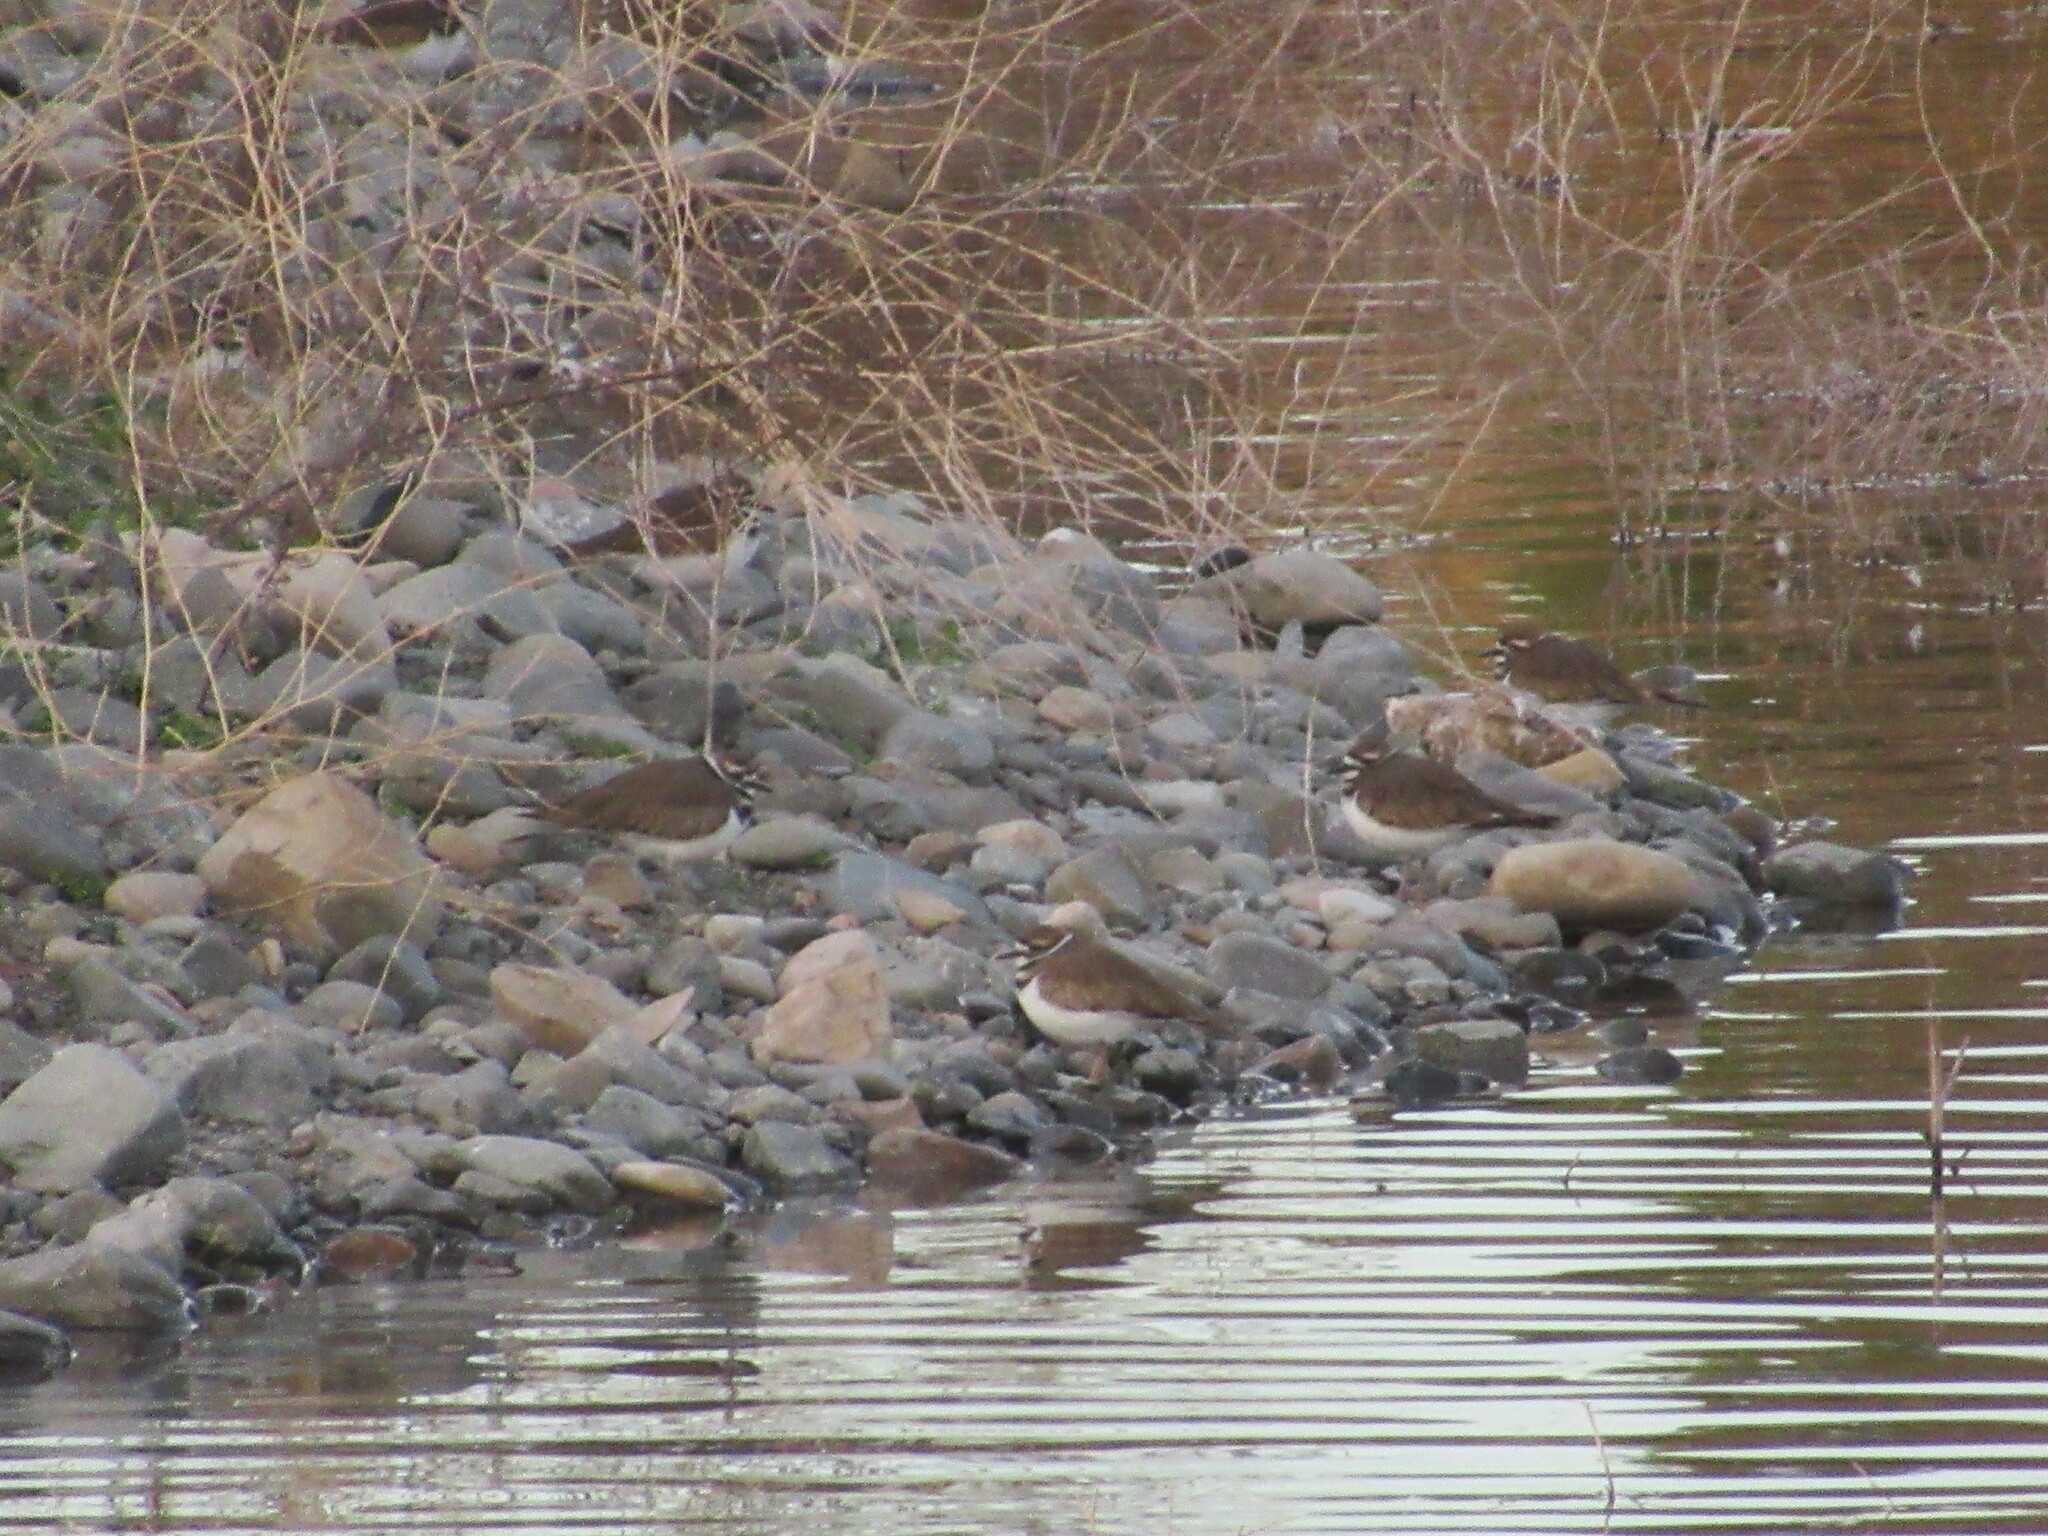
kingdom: Animalia
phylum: Chordata
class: Aves
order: Charadriiformes
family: Charadriidae
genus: Charadrius
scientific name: Charadrius vociferus
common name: Killdeer
